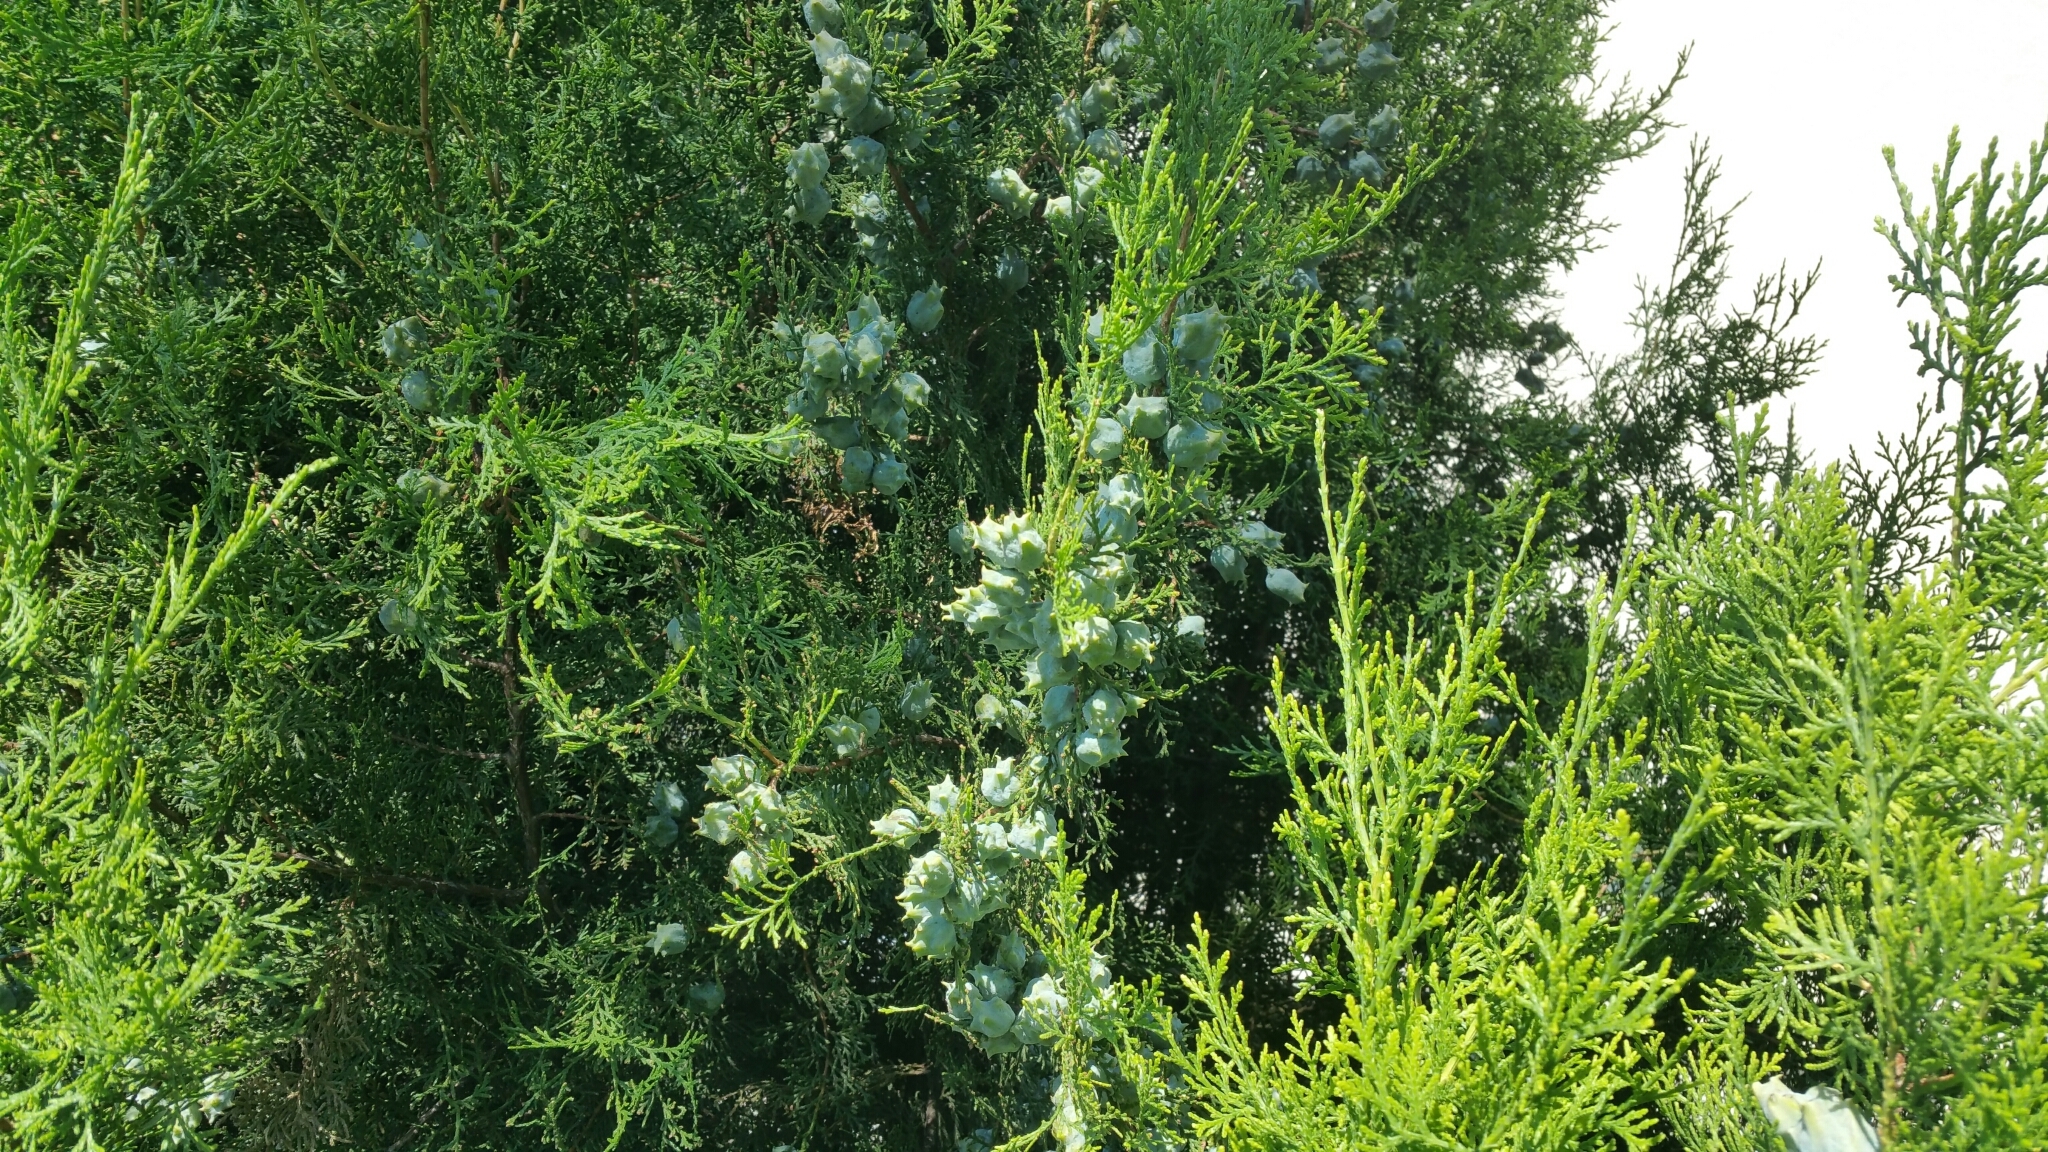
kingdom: Plantae
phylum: Tracheophyta
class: Pinopsida
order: Pinales
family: Cupressaceae
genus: Platycladus
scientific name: Platycladus orientalis
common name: Chinese thuja
